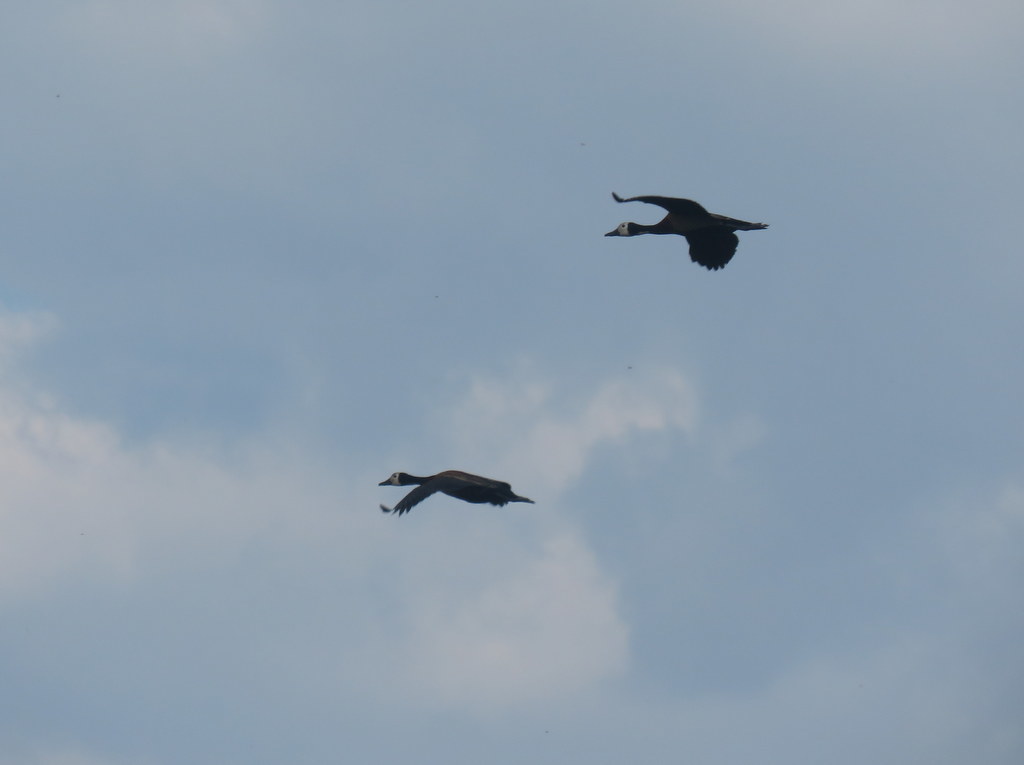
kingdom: Animalia
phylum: Chordata
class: Aves
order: Anseriformes
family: Anatidae
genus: Dendrocygna
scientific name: Dendrocygna viduata
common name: White-faced whistling duck
